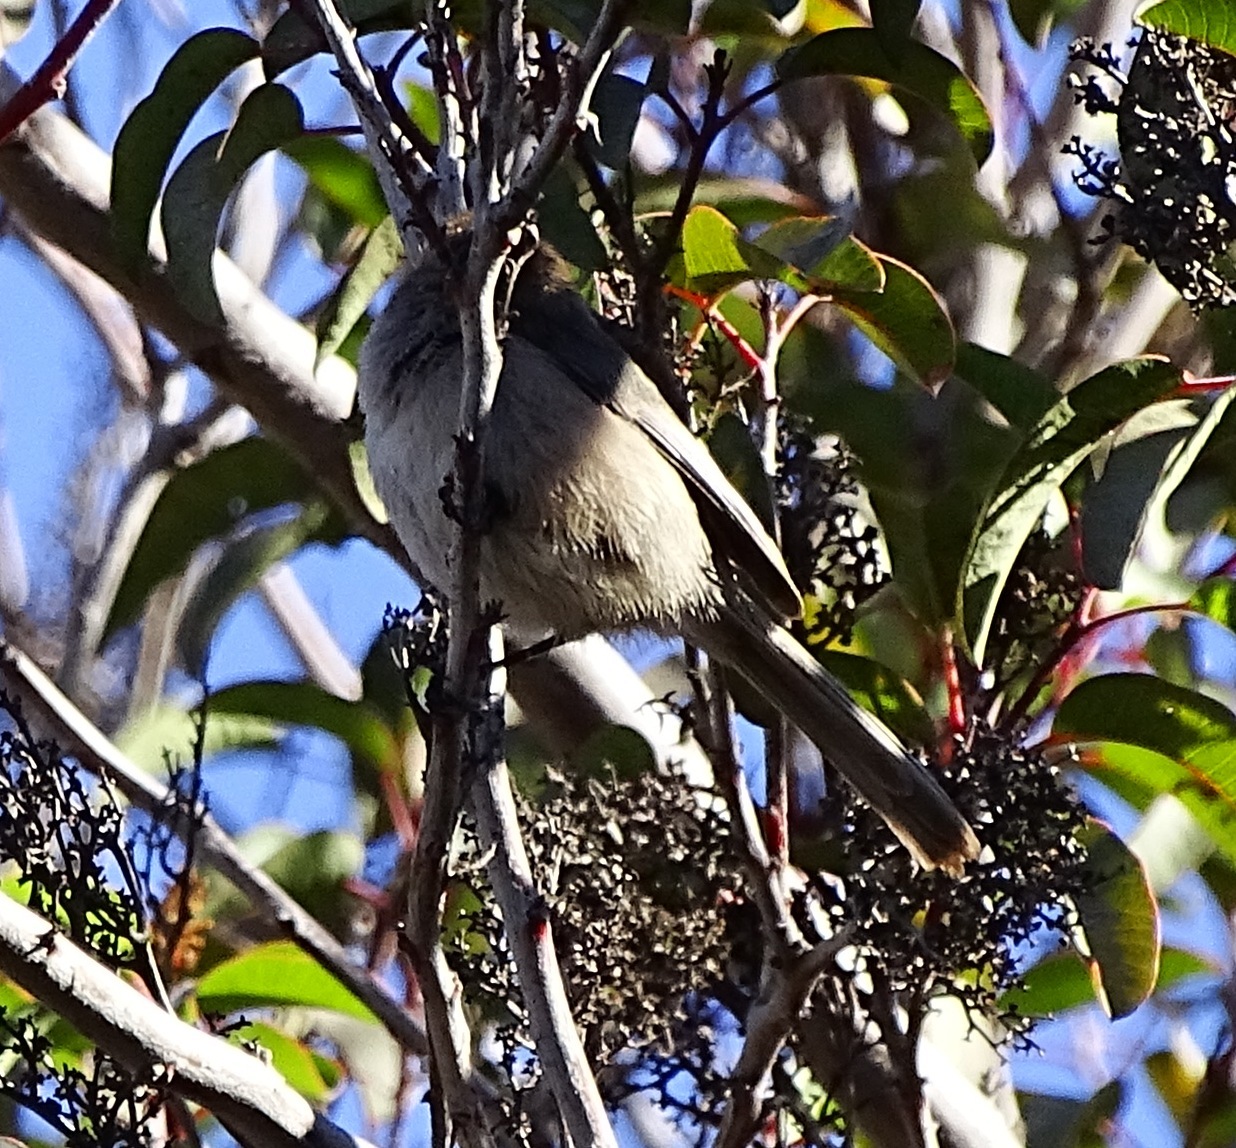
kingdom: Animalia
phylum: Chordata
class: Aves
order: Passeriformes
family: Aegithalidae
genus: Psaltriparus
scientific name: Psaltriparus minimus
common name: American bushtit
